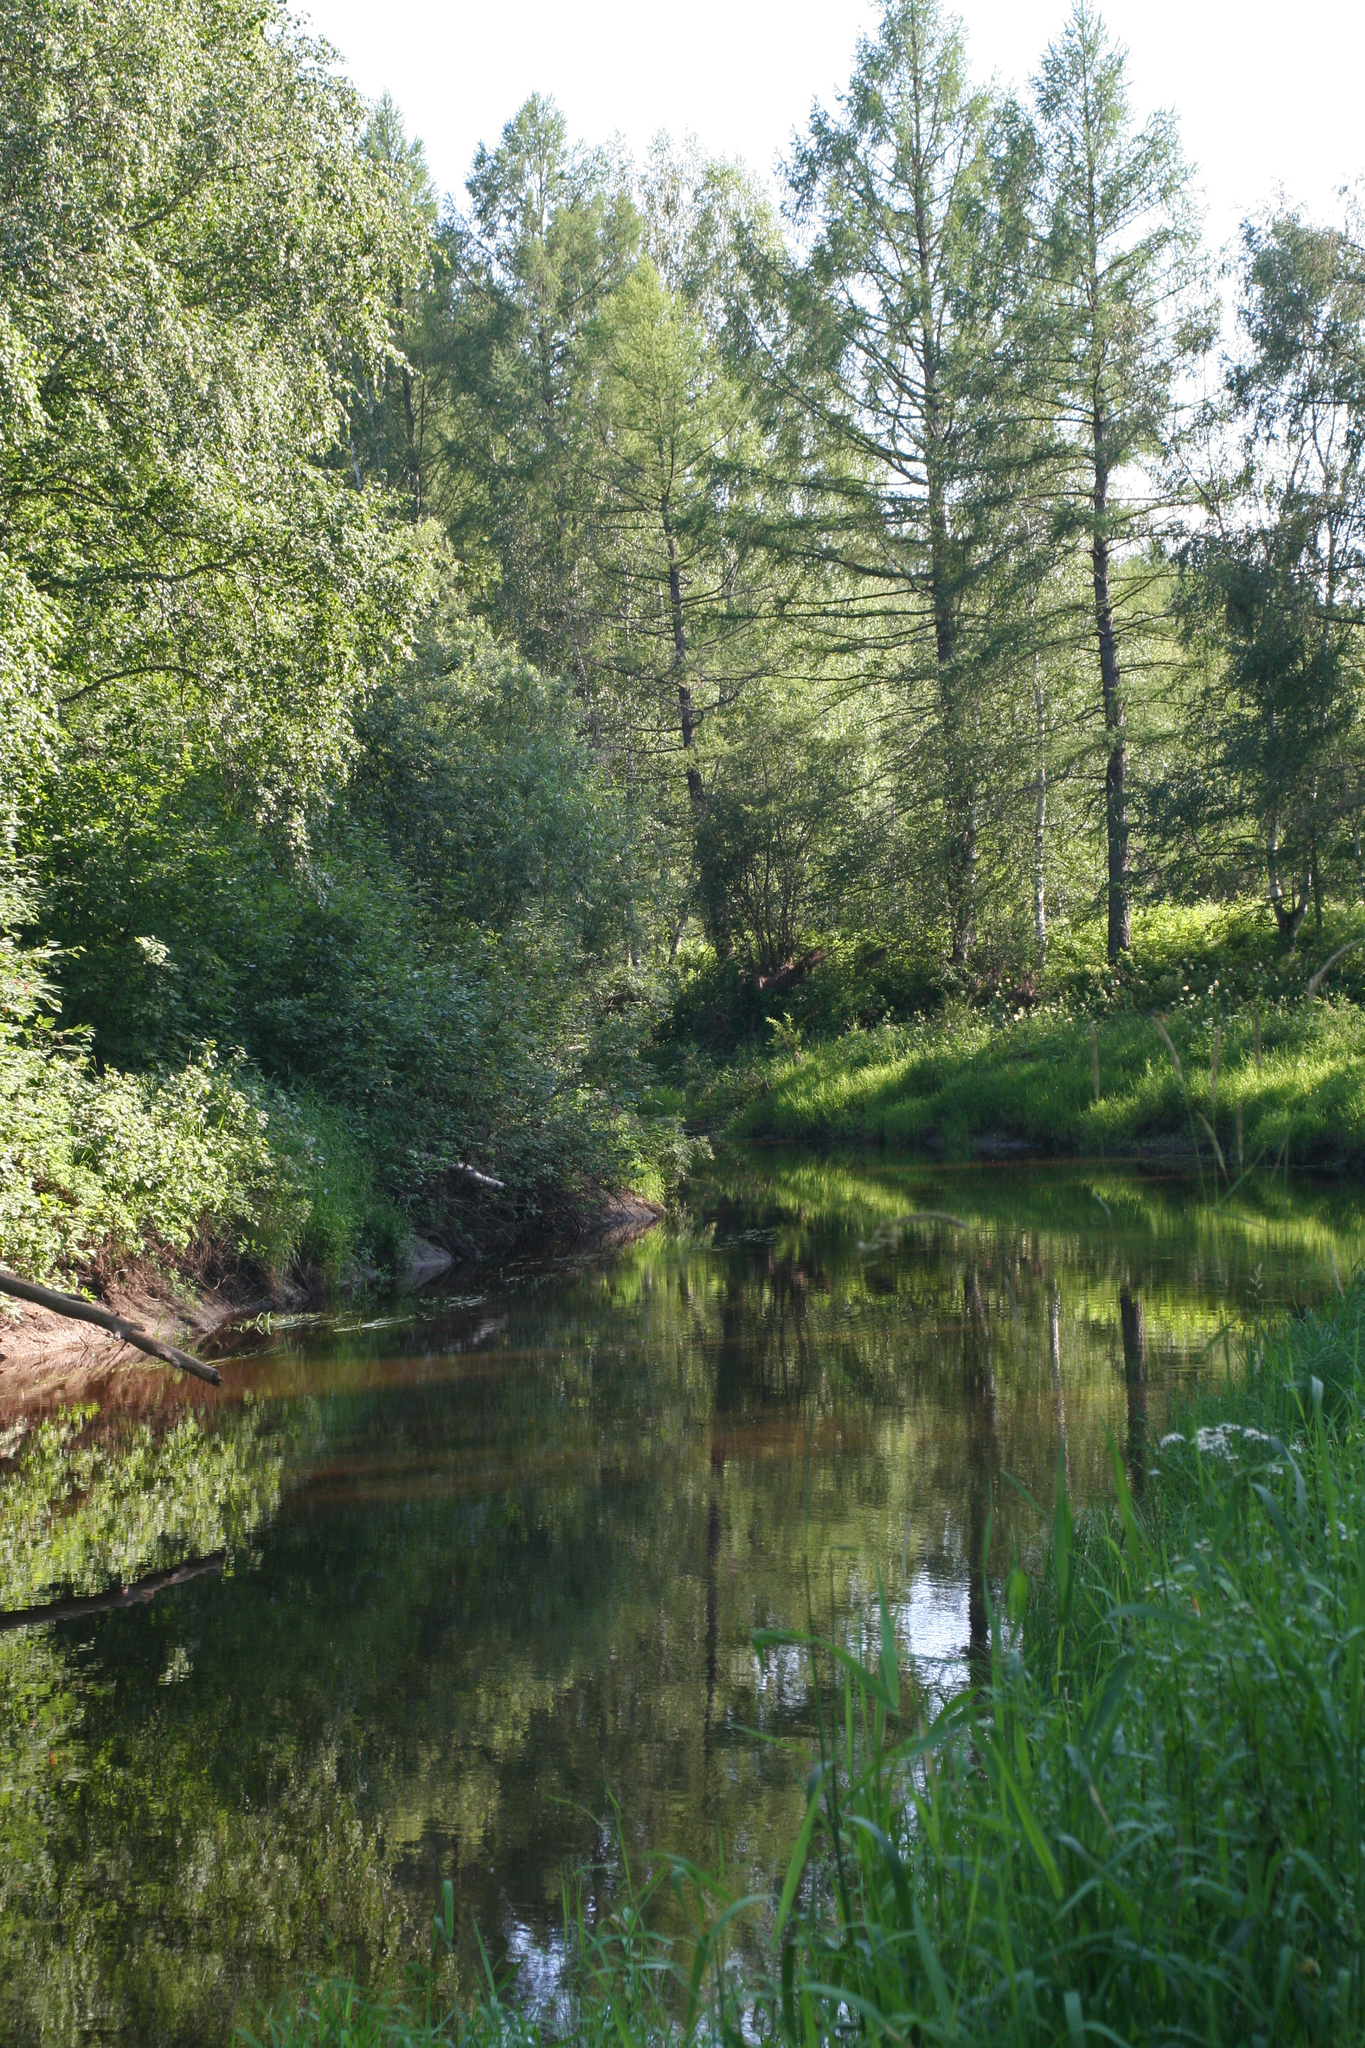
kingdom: Plantae
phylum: Tracheophyta
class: Pinopsida
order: Pinales
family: Pinaceae
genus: Larix
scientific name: Larix sibirica
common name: Siberian larch
